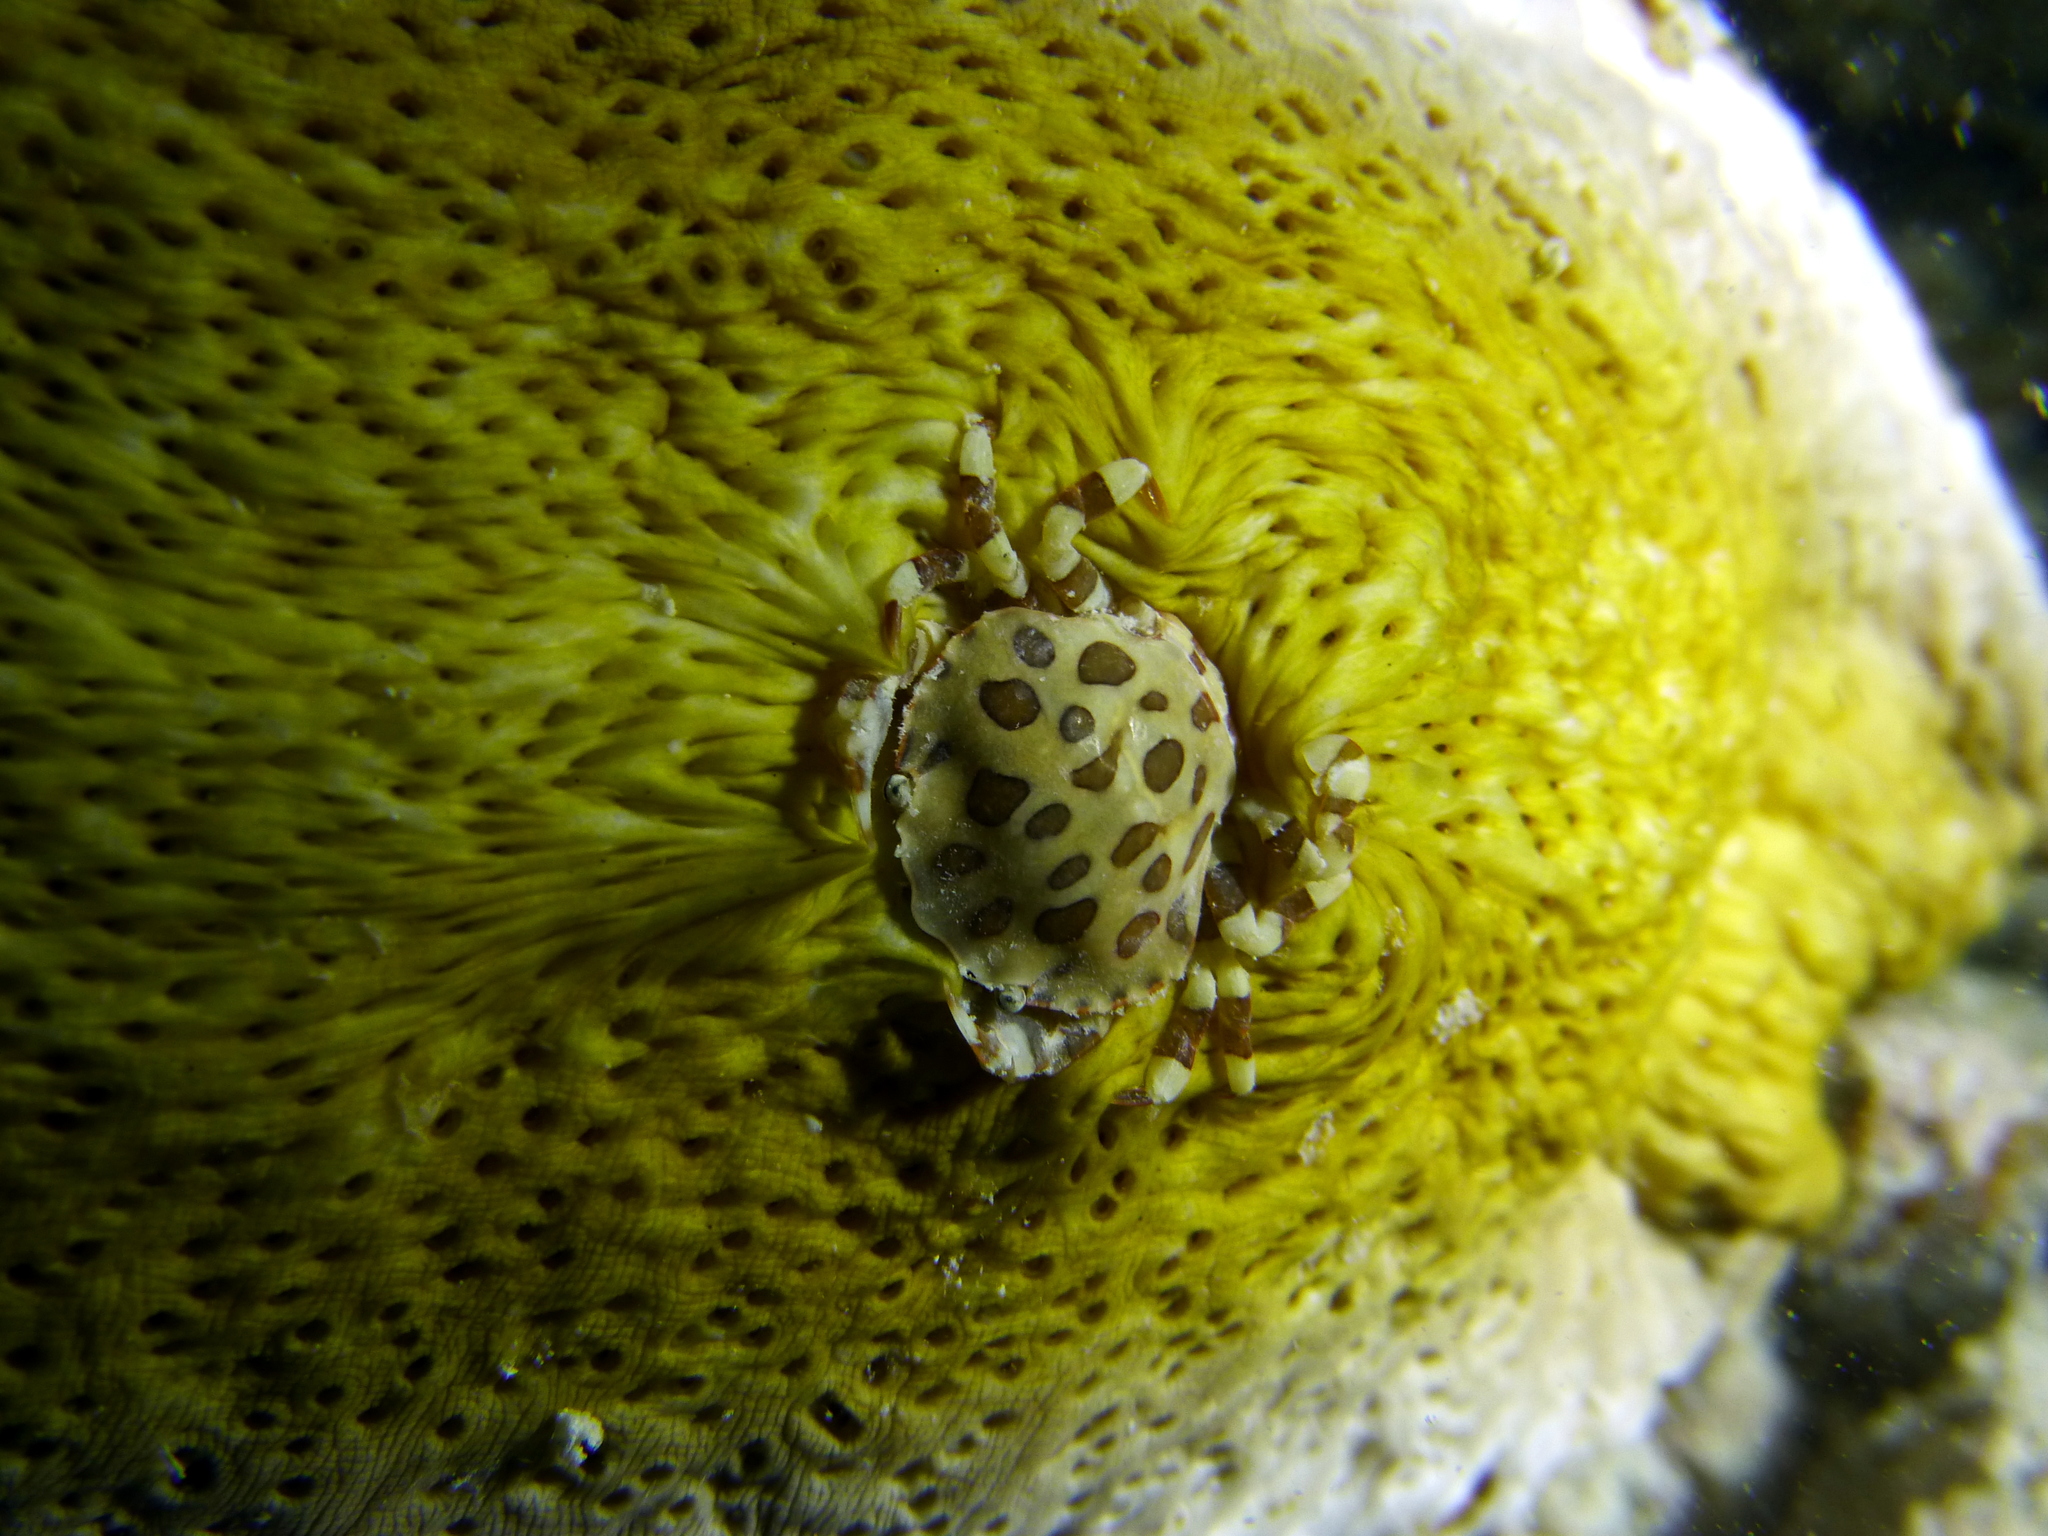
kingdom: Animalia
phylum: Arthropoda
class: Malacostraca
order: Decapoda
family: Portunidae
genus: Lissocarcinus
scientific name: Lissocarcinus orbicularis
